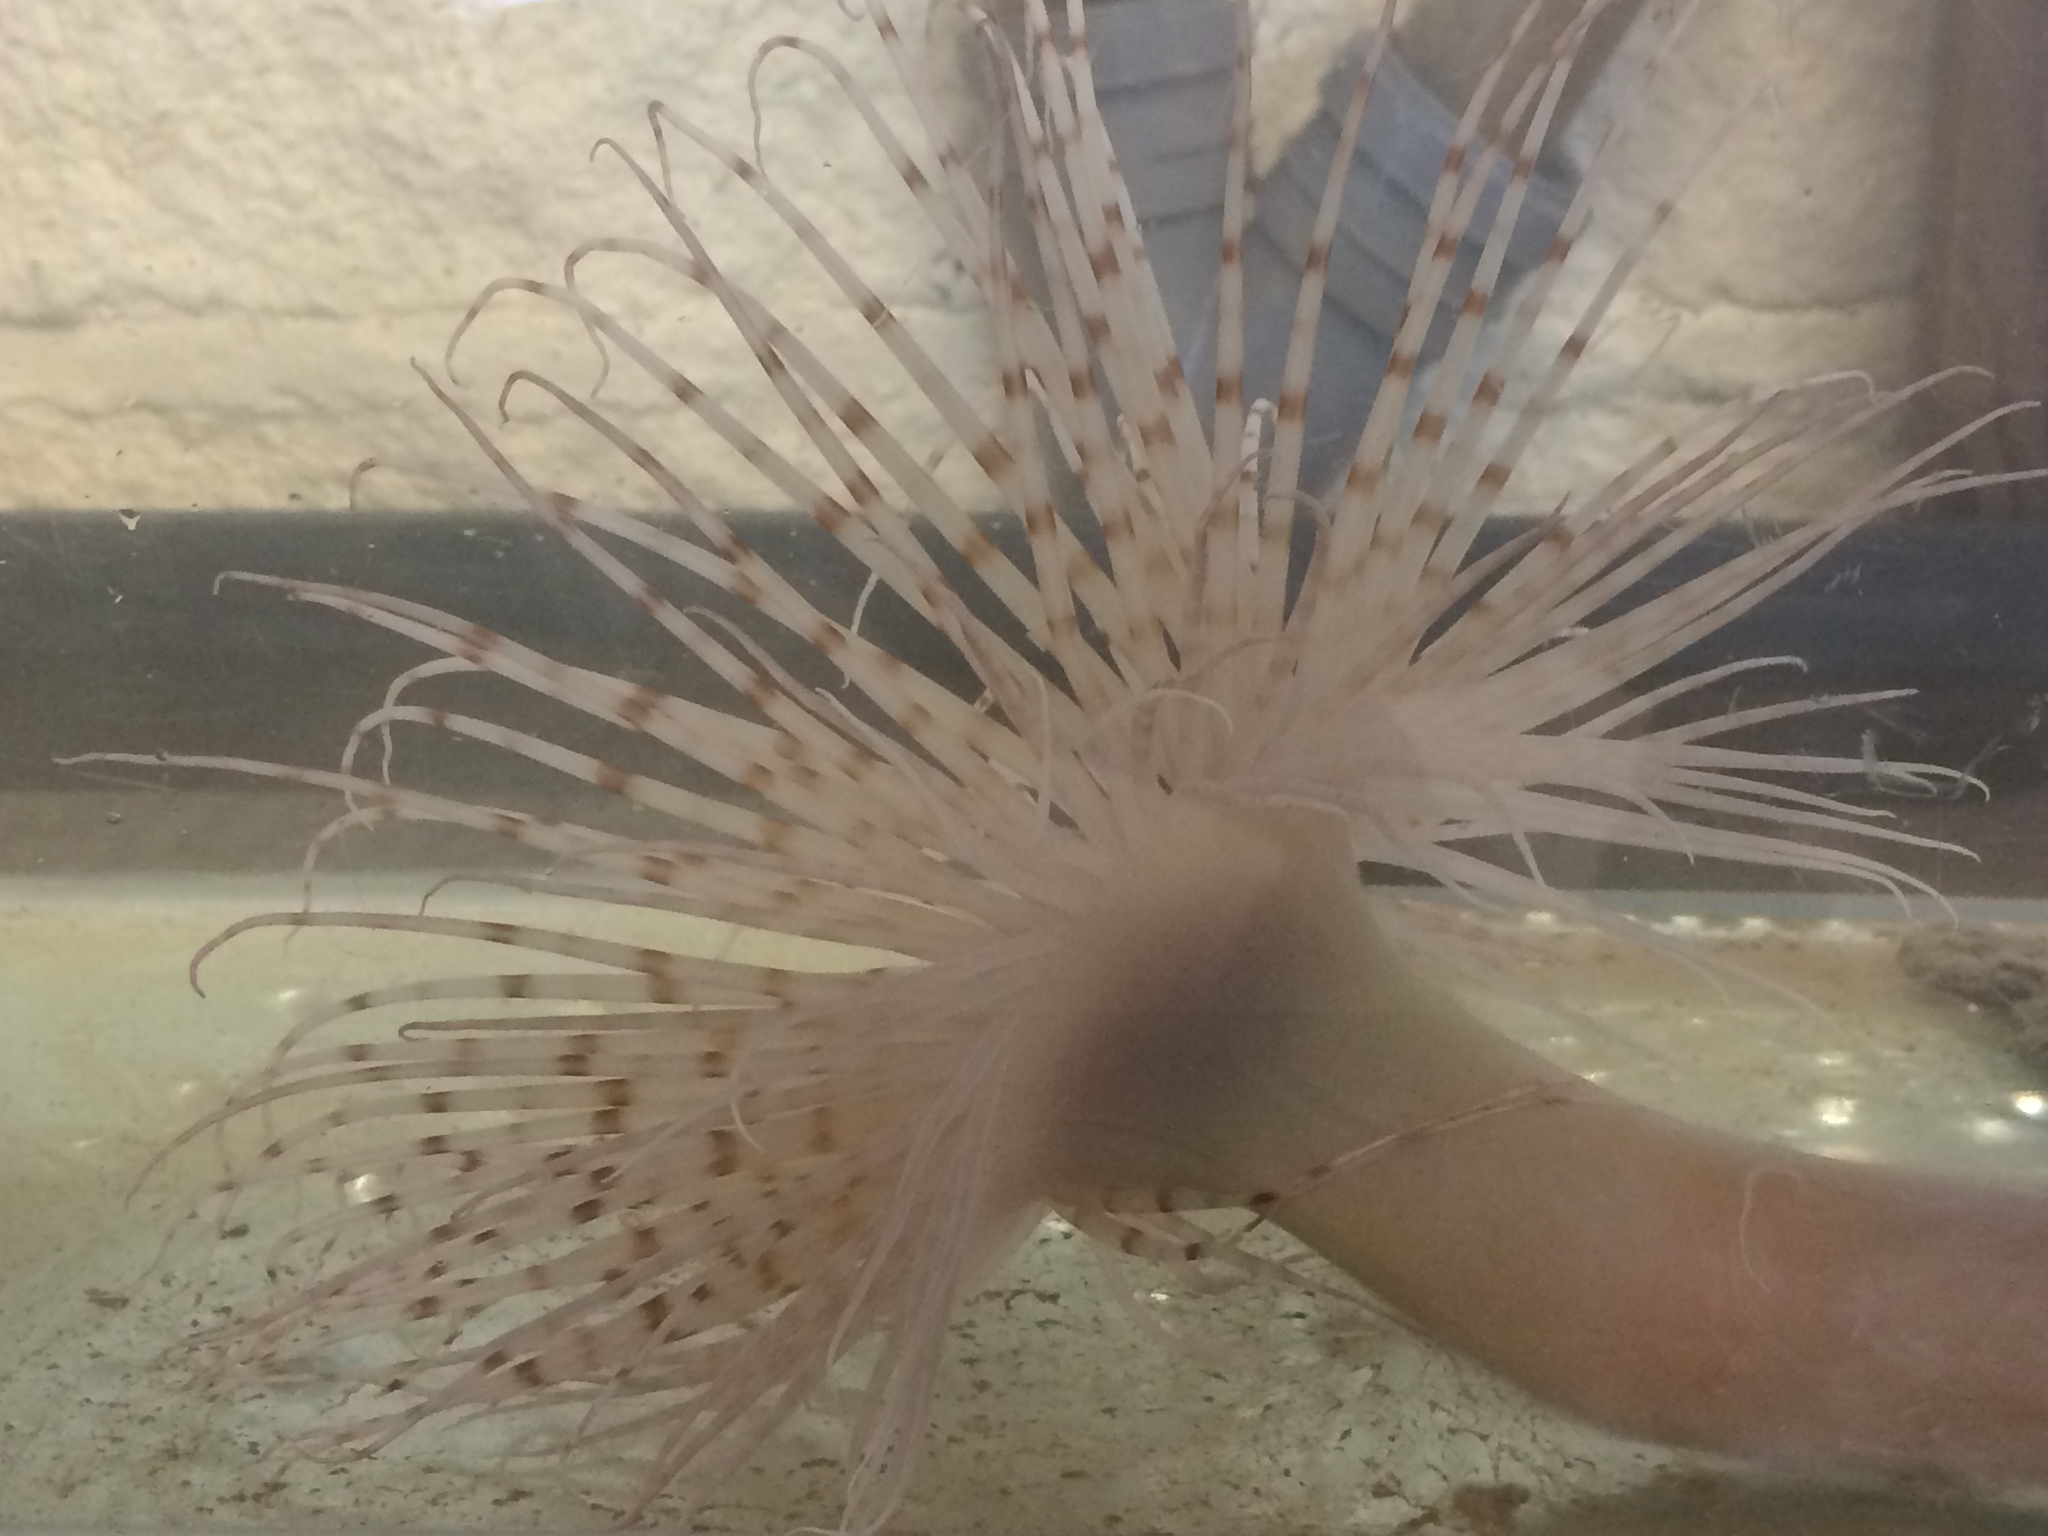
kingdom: Animalia
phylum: Cnidaria
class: Anthozoa
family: Cerianthidae
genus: Pachycerianthus
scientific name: Pachycerianthus multiplicatus
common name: Fireworks anemone
